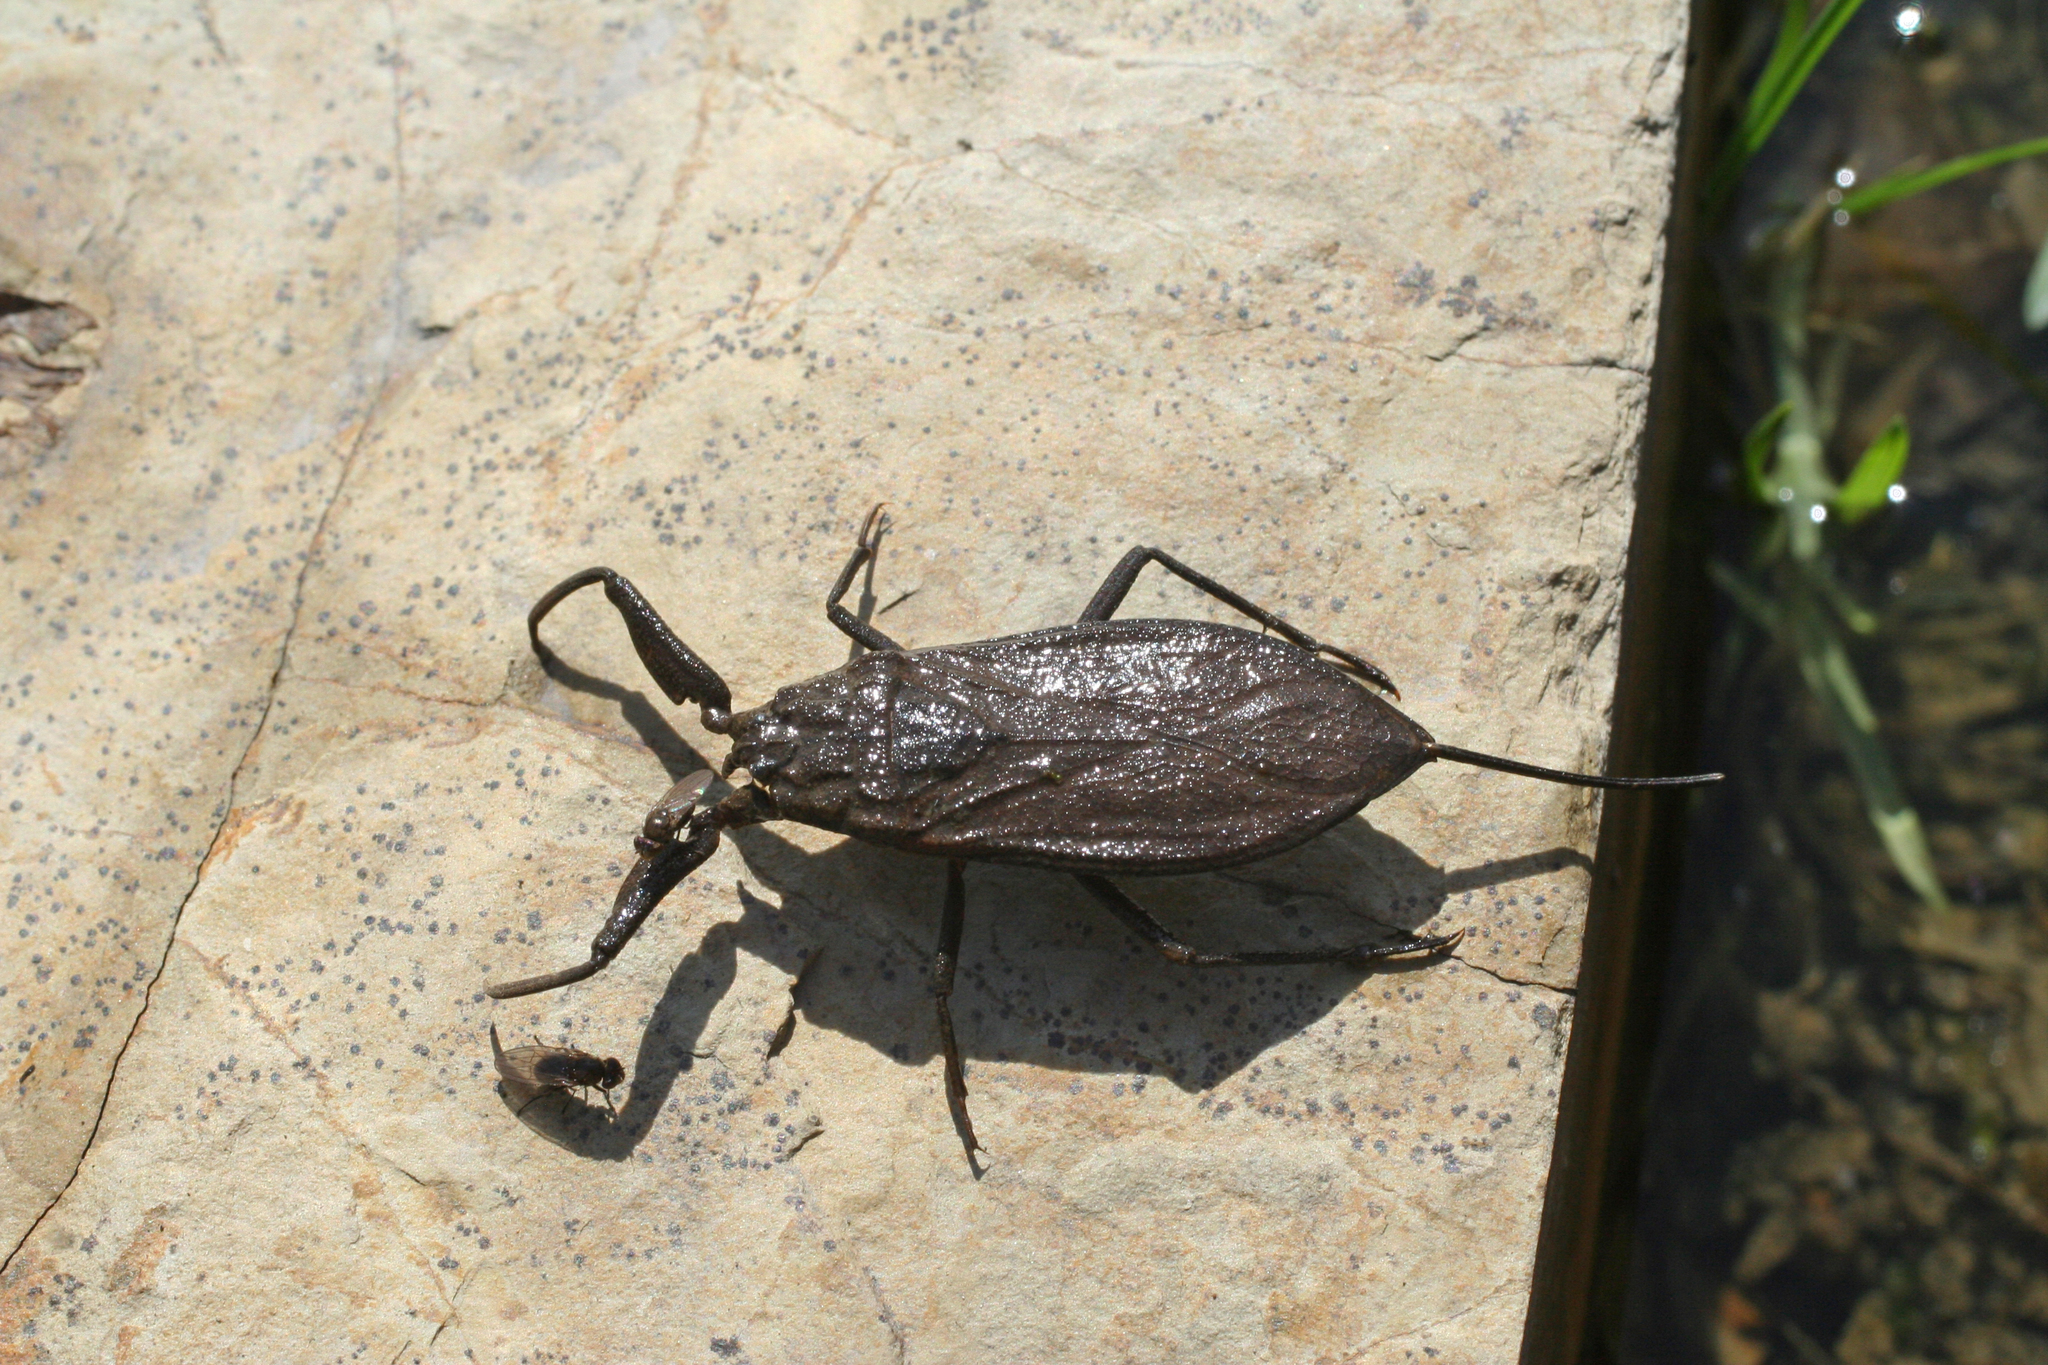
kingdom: Animalia
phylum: Arthropoda
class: Insecta
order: Hemiptera
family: Nepidae
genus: Nepa
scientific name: Nepa cinerea
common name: Water scorpion
